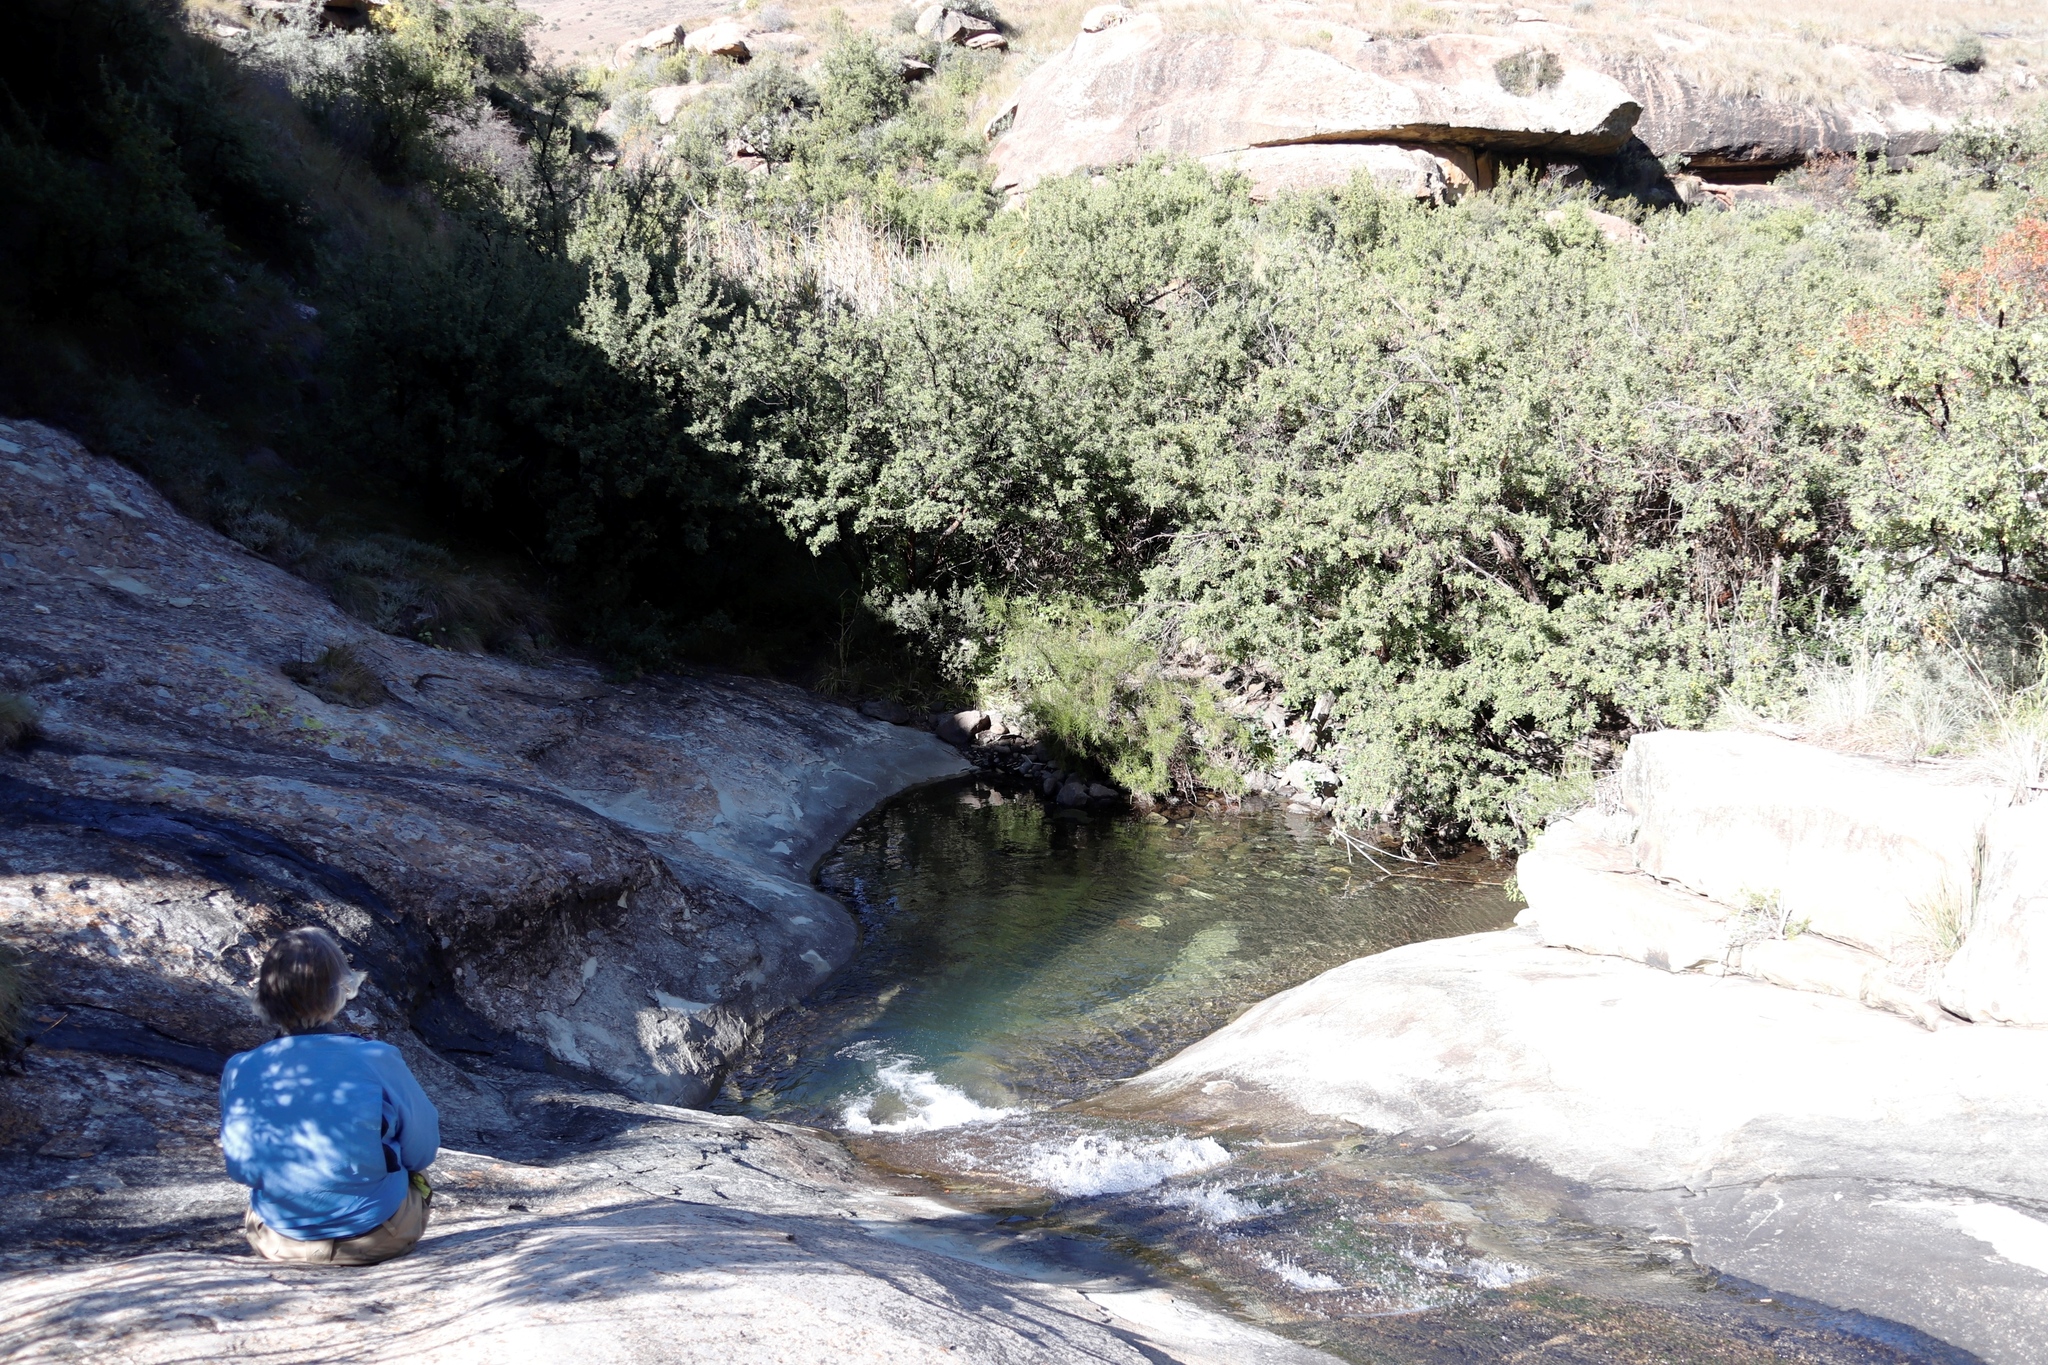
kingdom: Plantae
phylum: Tracheophyta
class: Magnoliopsida
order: Rosales
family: Rosaceae
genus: Leucosidea
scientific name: Leucosidea sericea
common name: Oldwood
